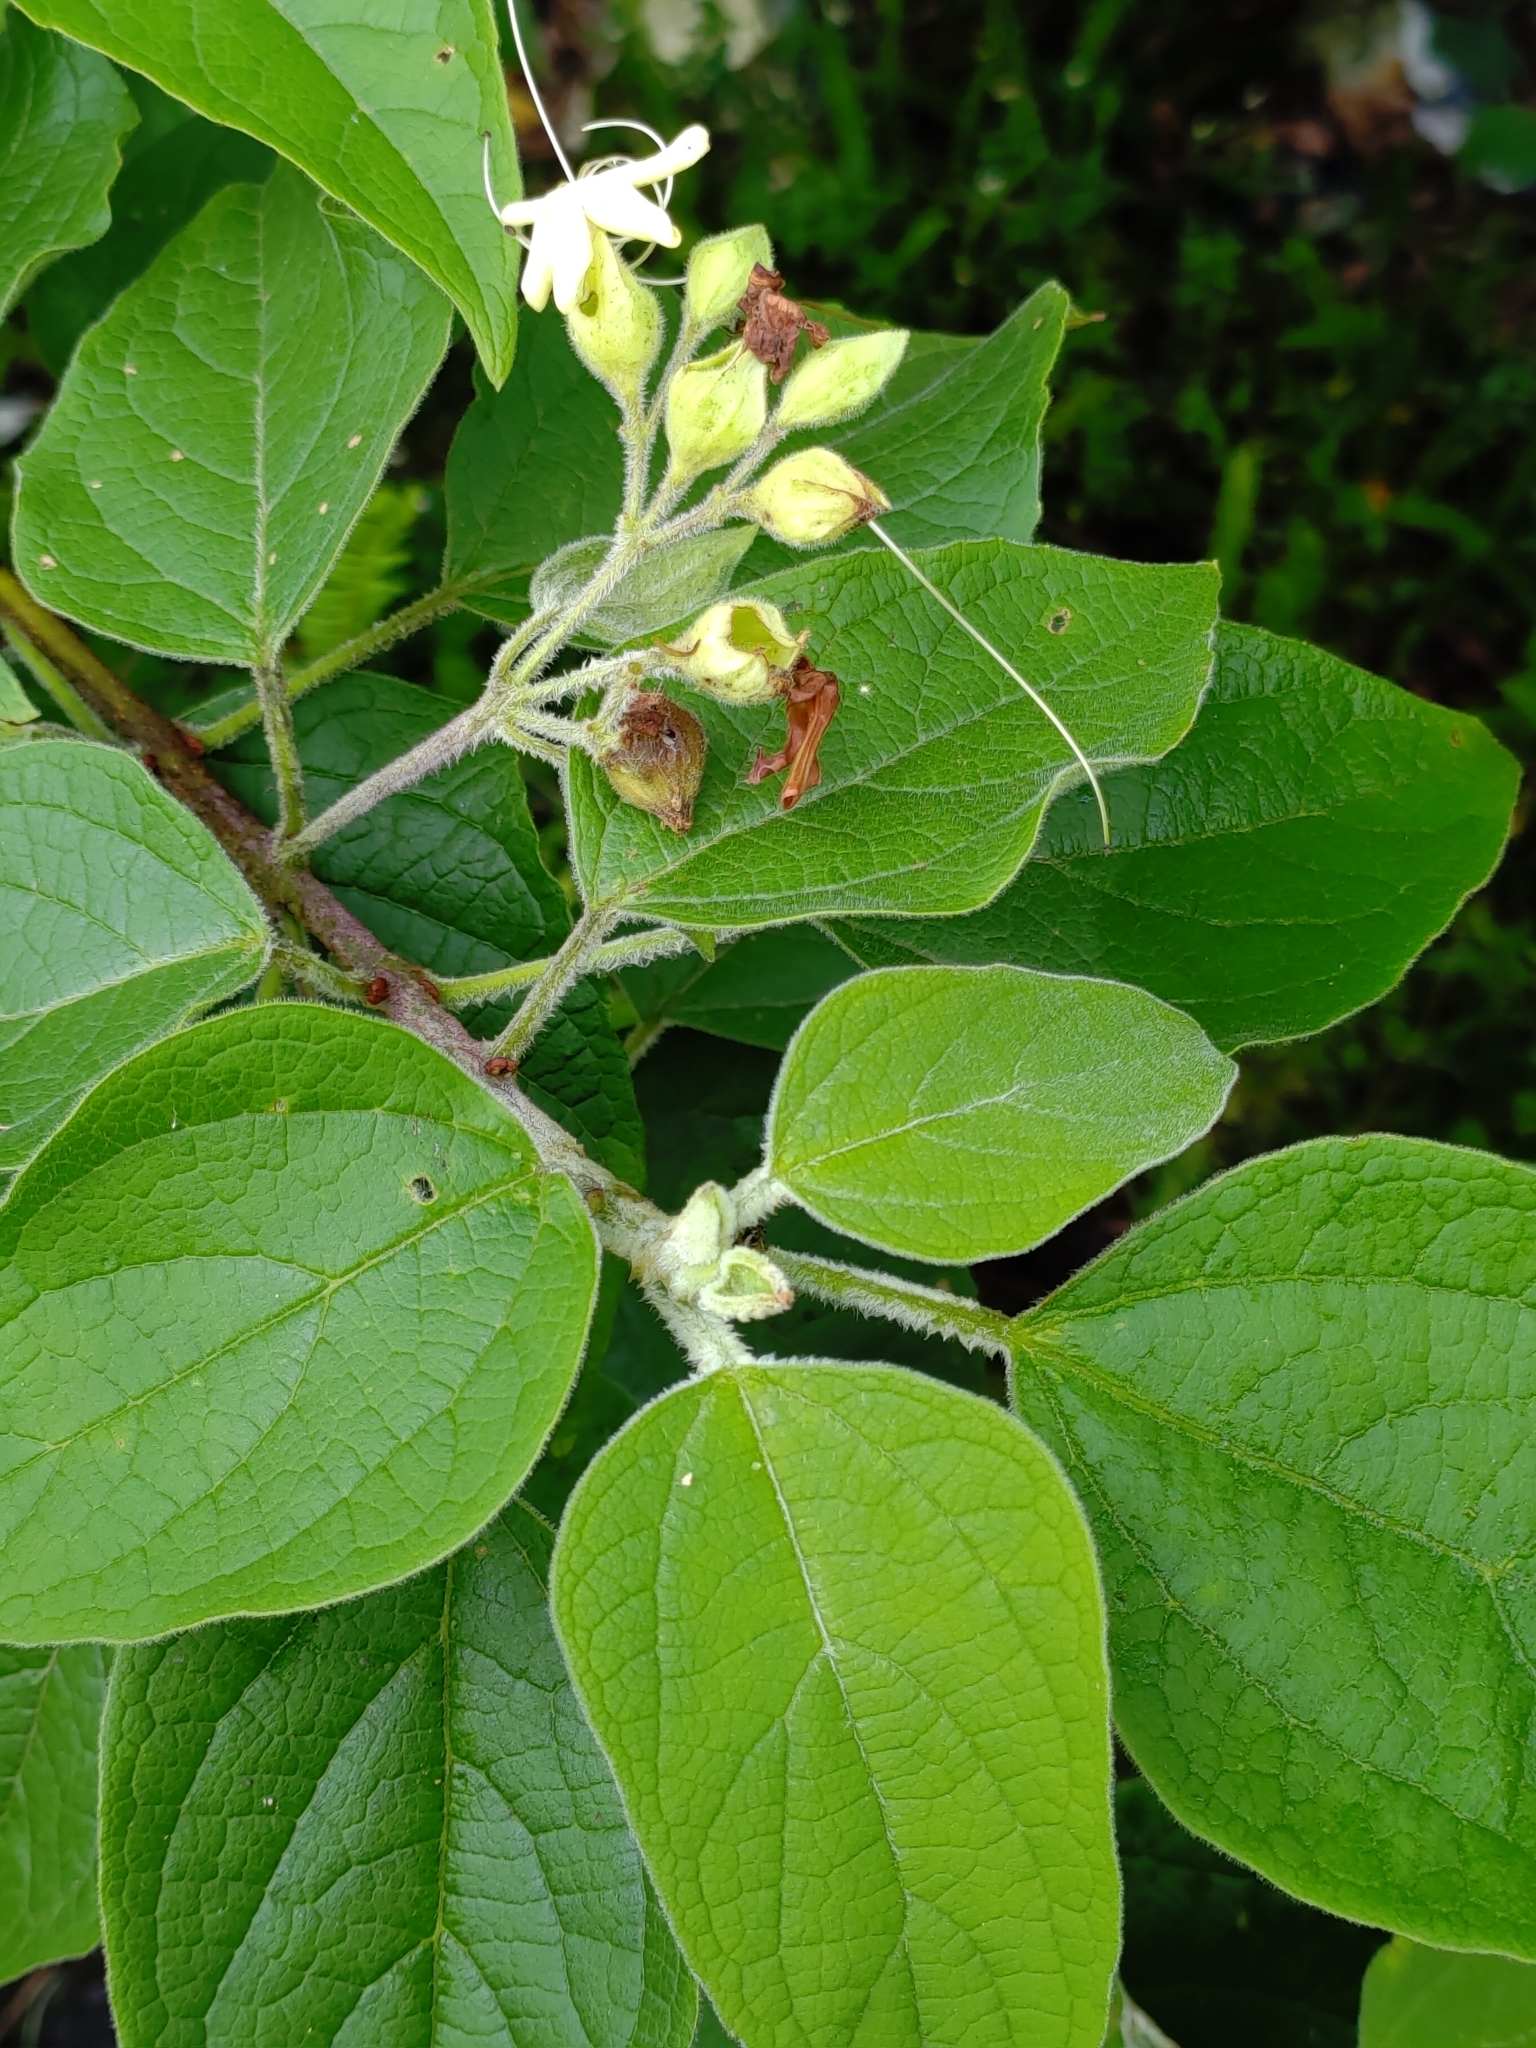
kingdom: Plantae
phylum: Tracheophyta
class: Magnoliopsida
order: Lamiales
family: Lamiaceae
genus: Clerodendrum
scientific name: Clerodendrum trichotomum
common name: Harlequin glorybower
